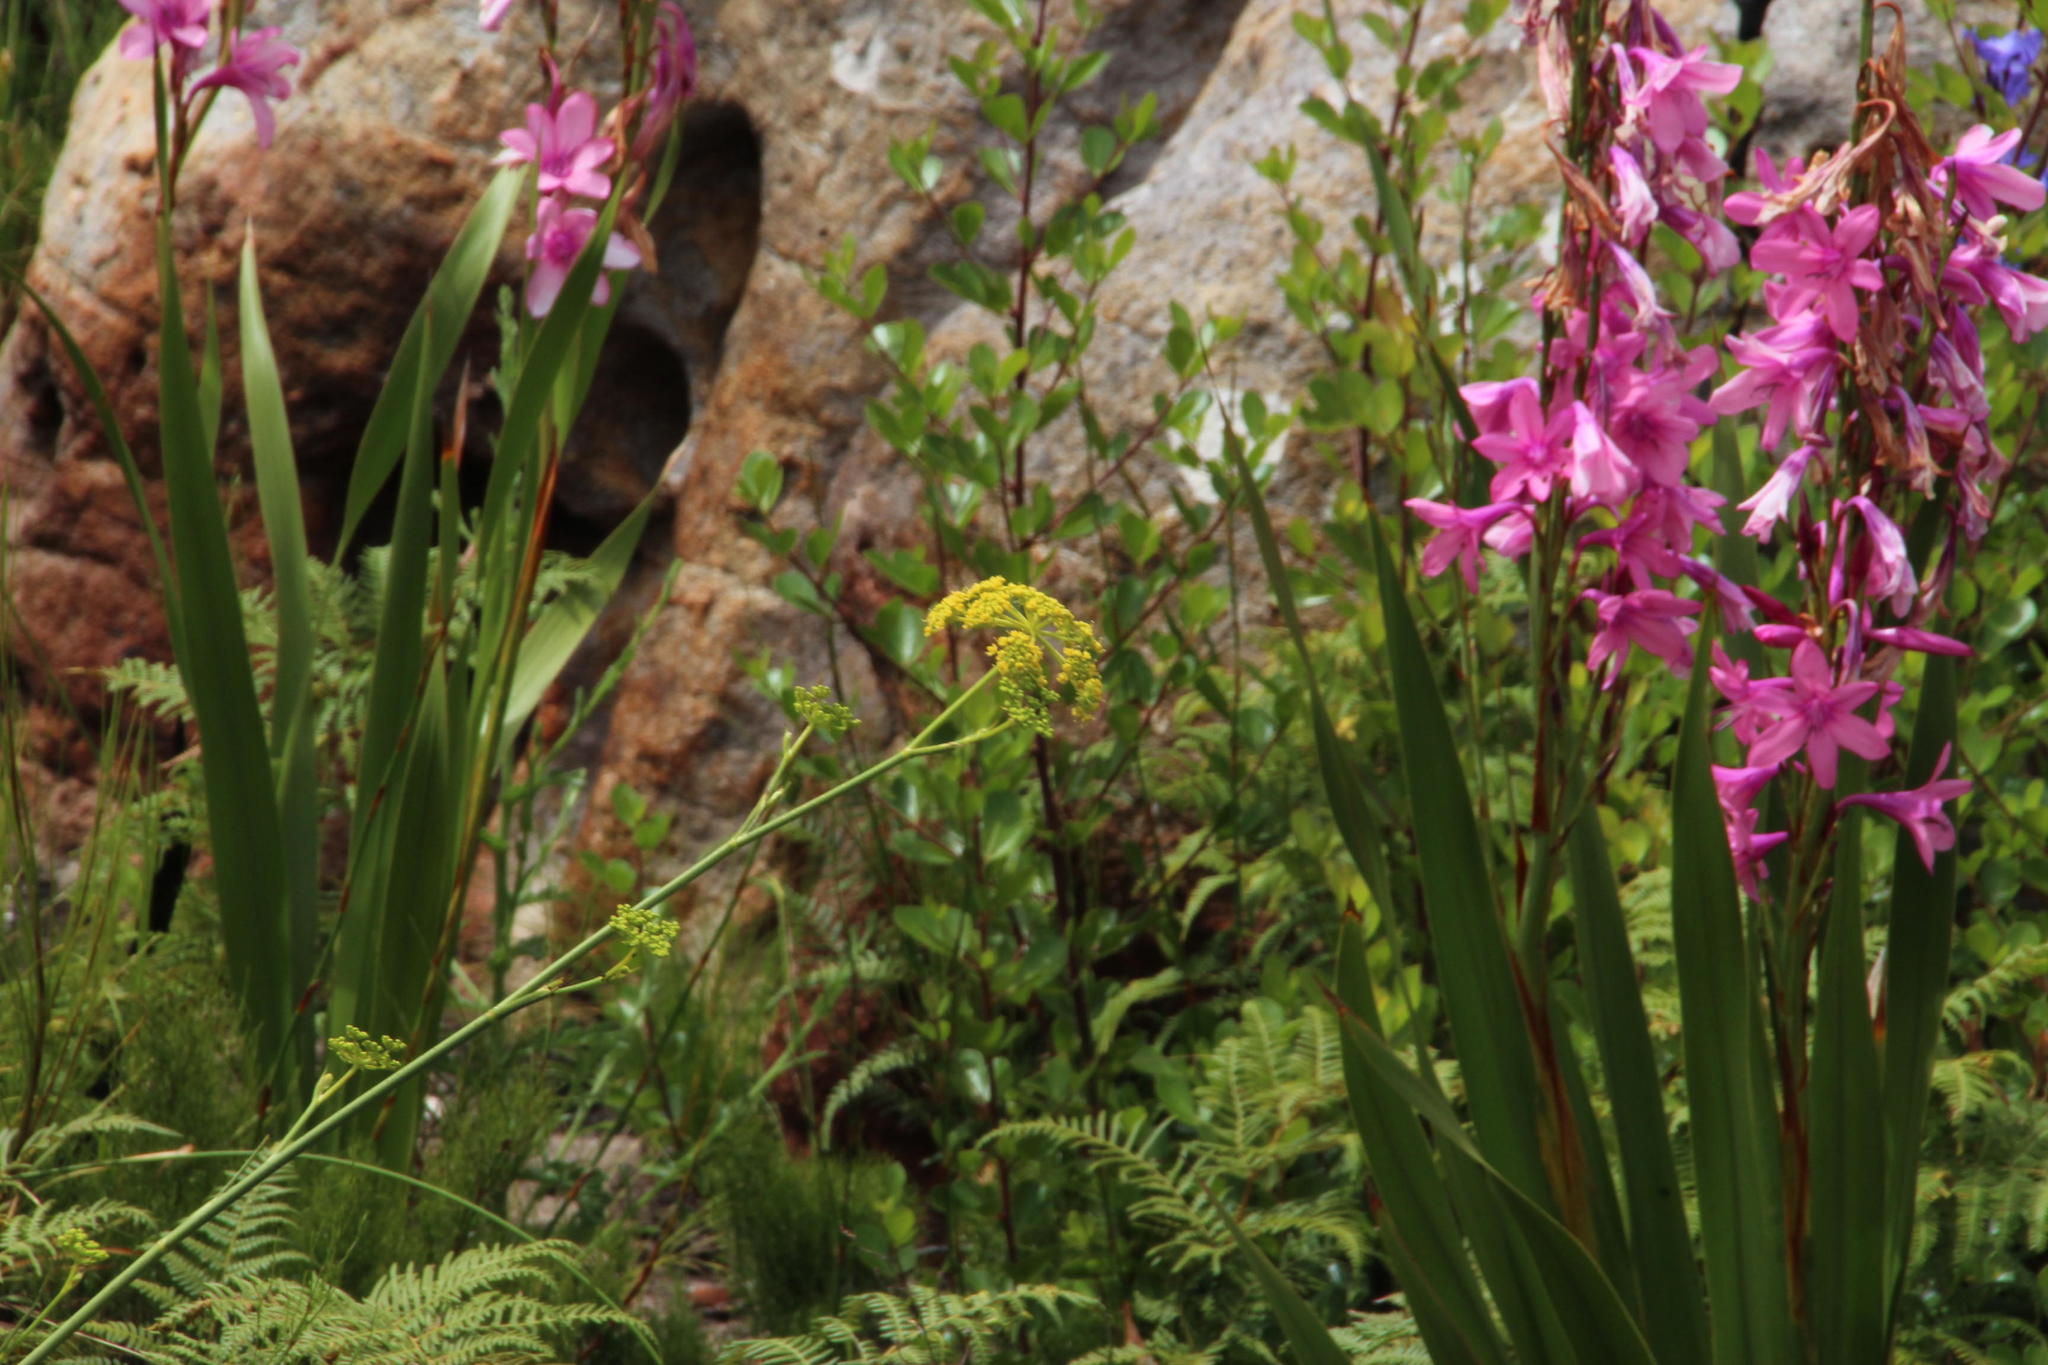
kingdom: Plantae
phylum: Tracheophyta
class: Magnoliopsida
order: Apiales
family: Apiaceae
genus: Notobubon
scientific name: Notobubon ferulaceum
